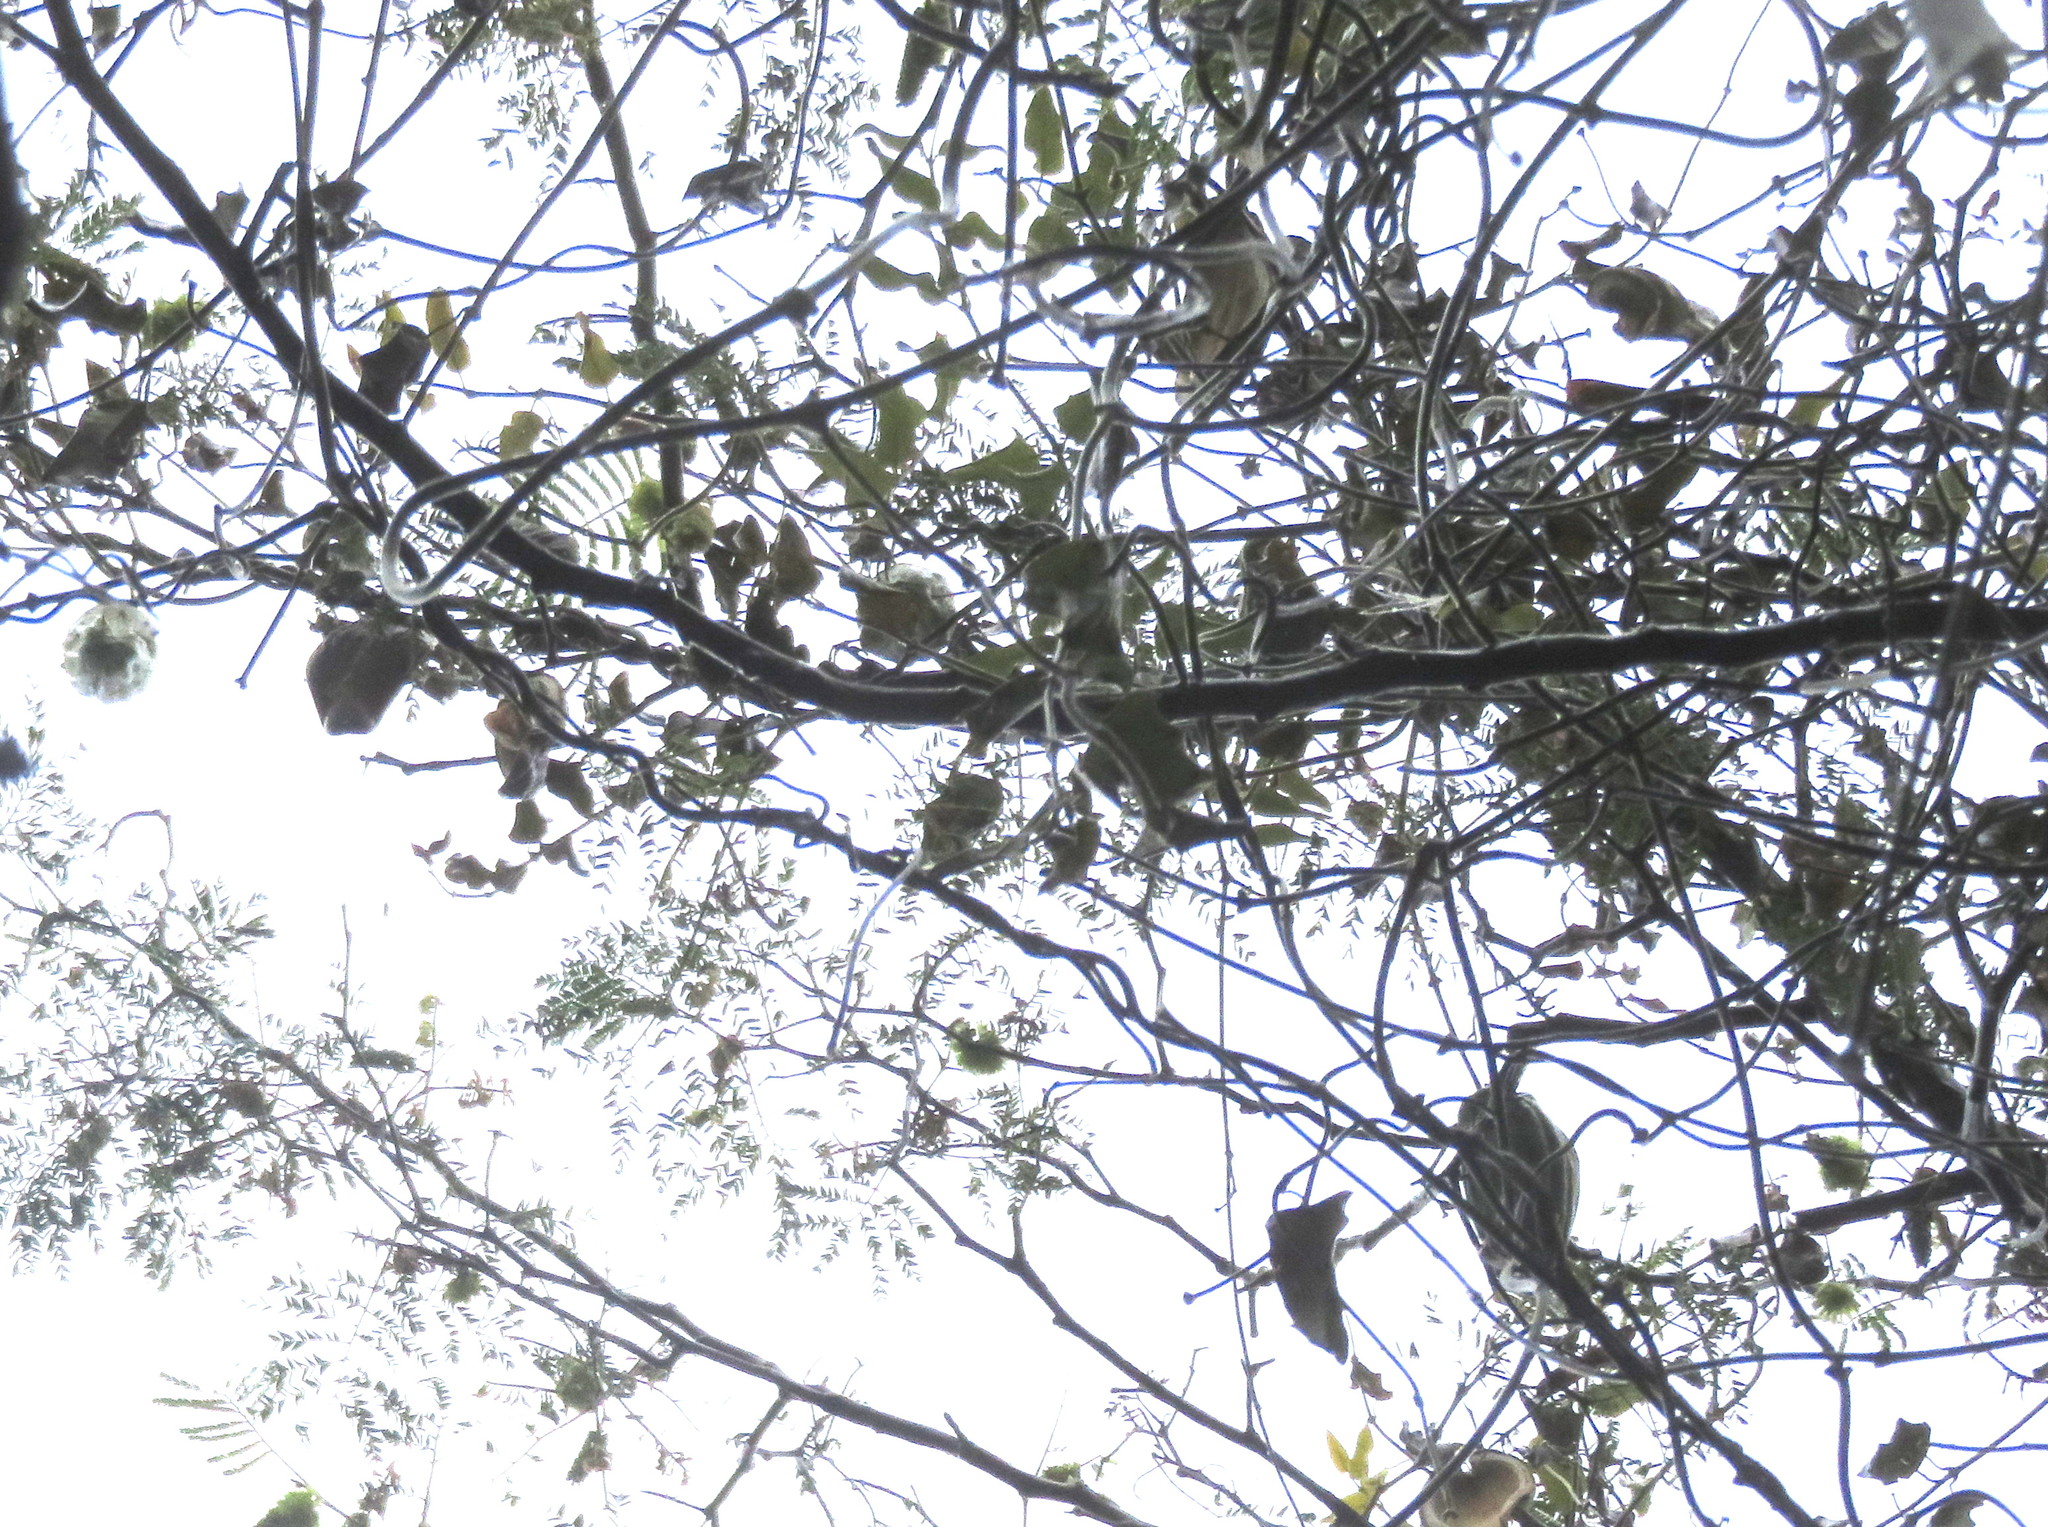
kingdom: Plantae
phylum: Tracheophyta
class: Magnoliopsida
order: Fabales
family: Fabaceae
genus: Paraserianthes
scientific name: Paraserianthes lophantha
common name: Plume albizia
